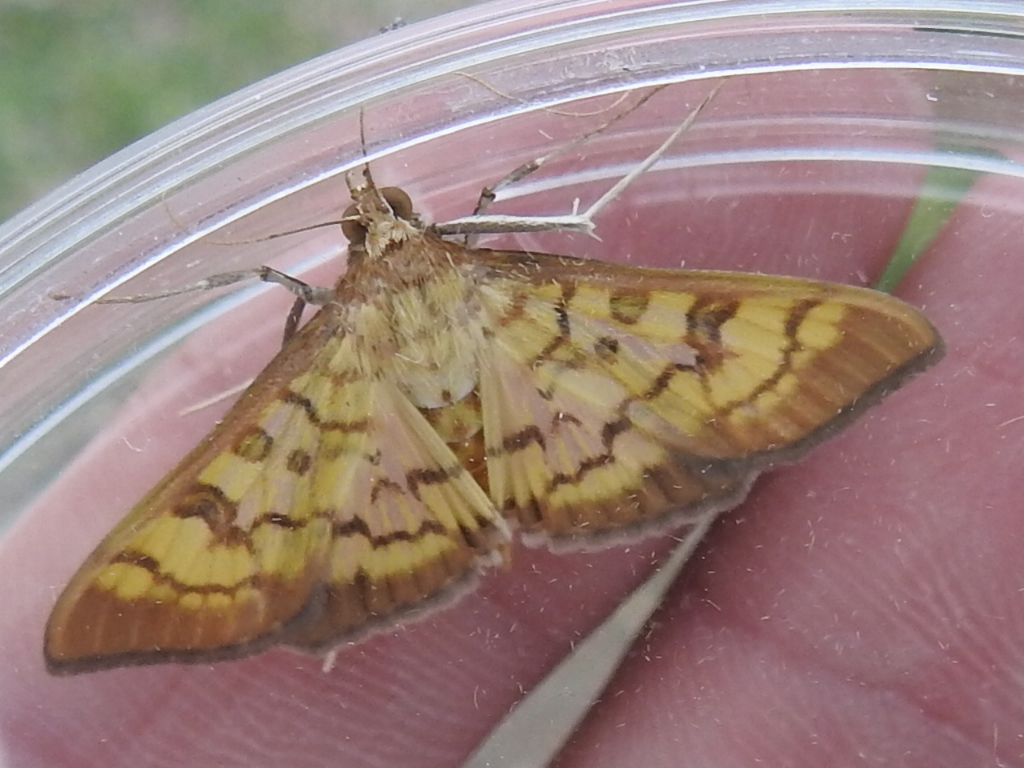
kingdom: Animalia
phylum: Arthropoda
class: Insecta
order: Lepidoptera
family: Crambidae
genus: Mimorista
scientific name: Mimorista subcostalis
